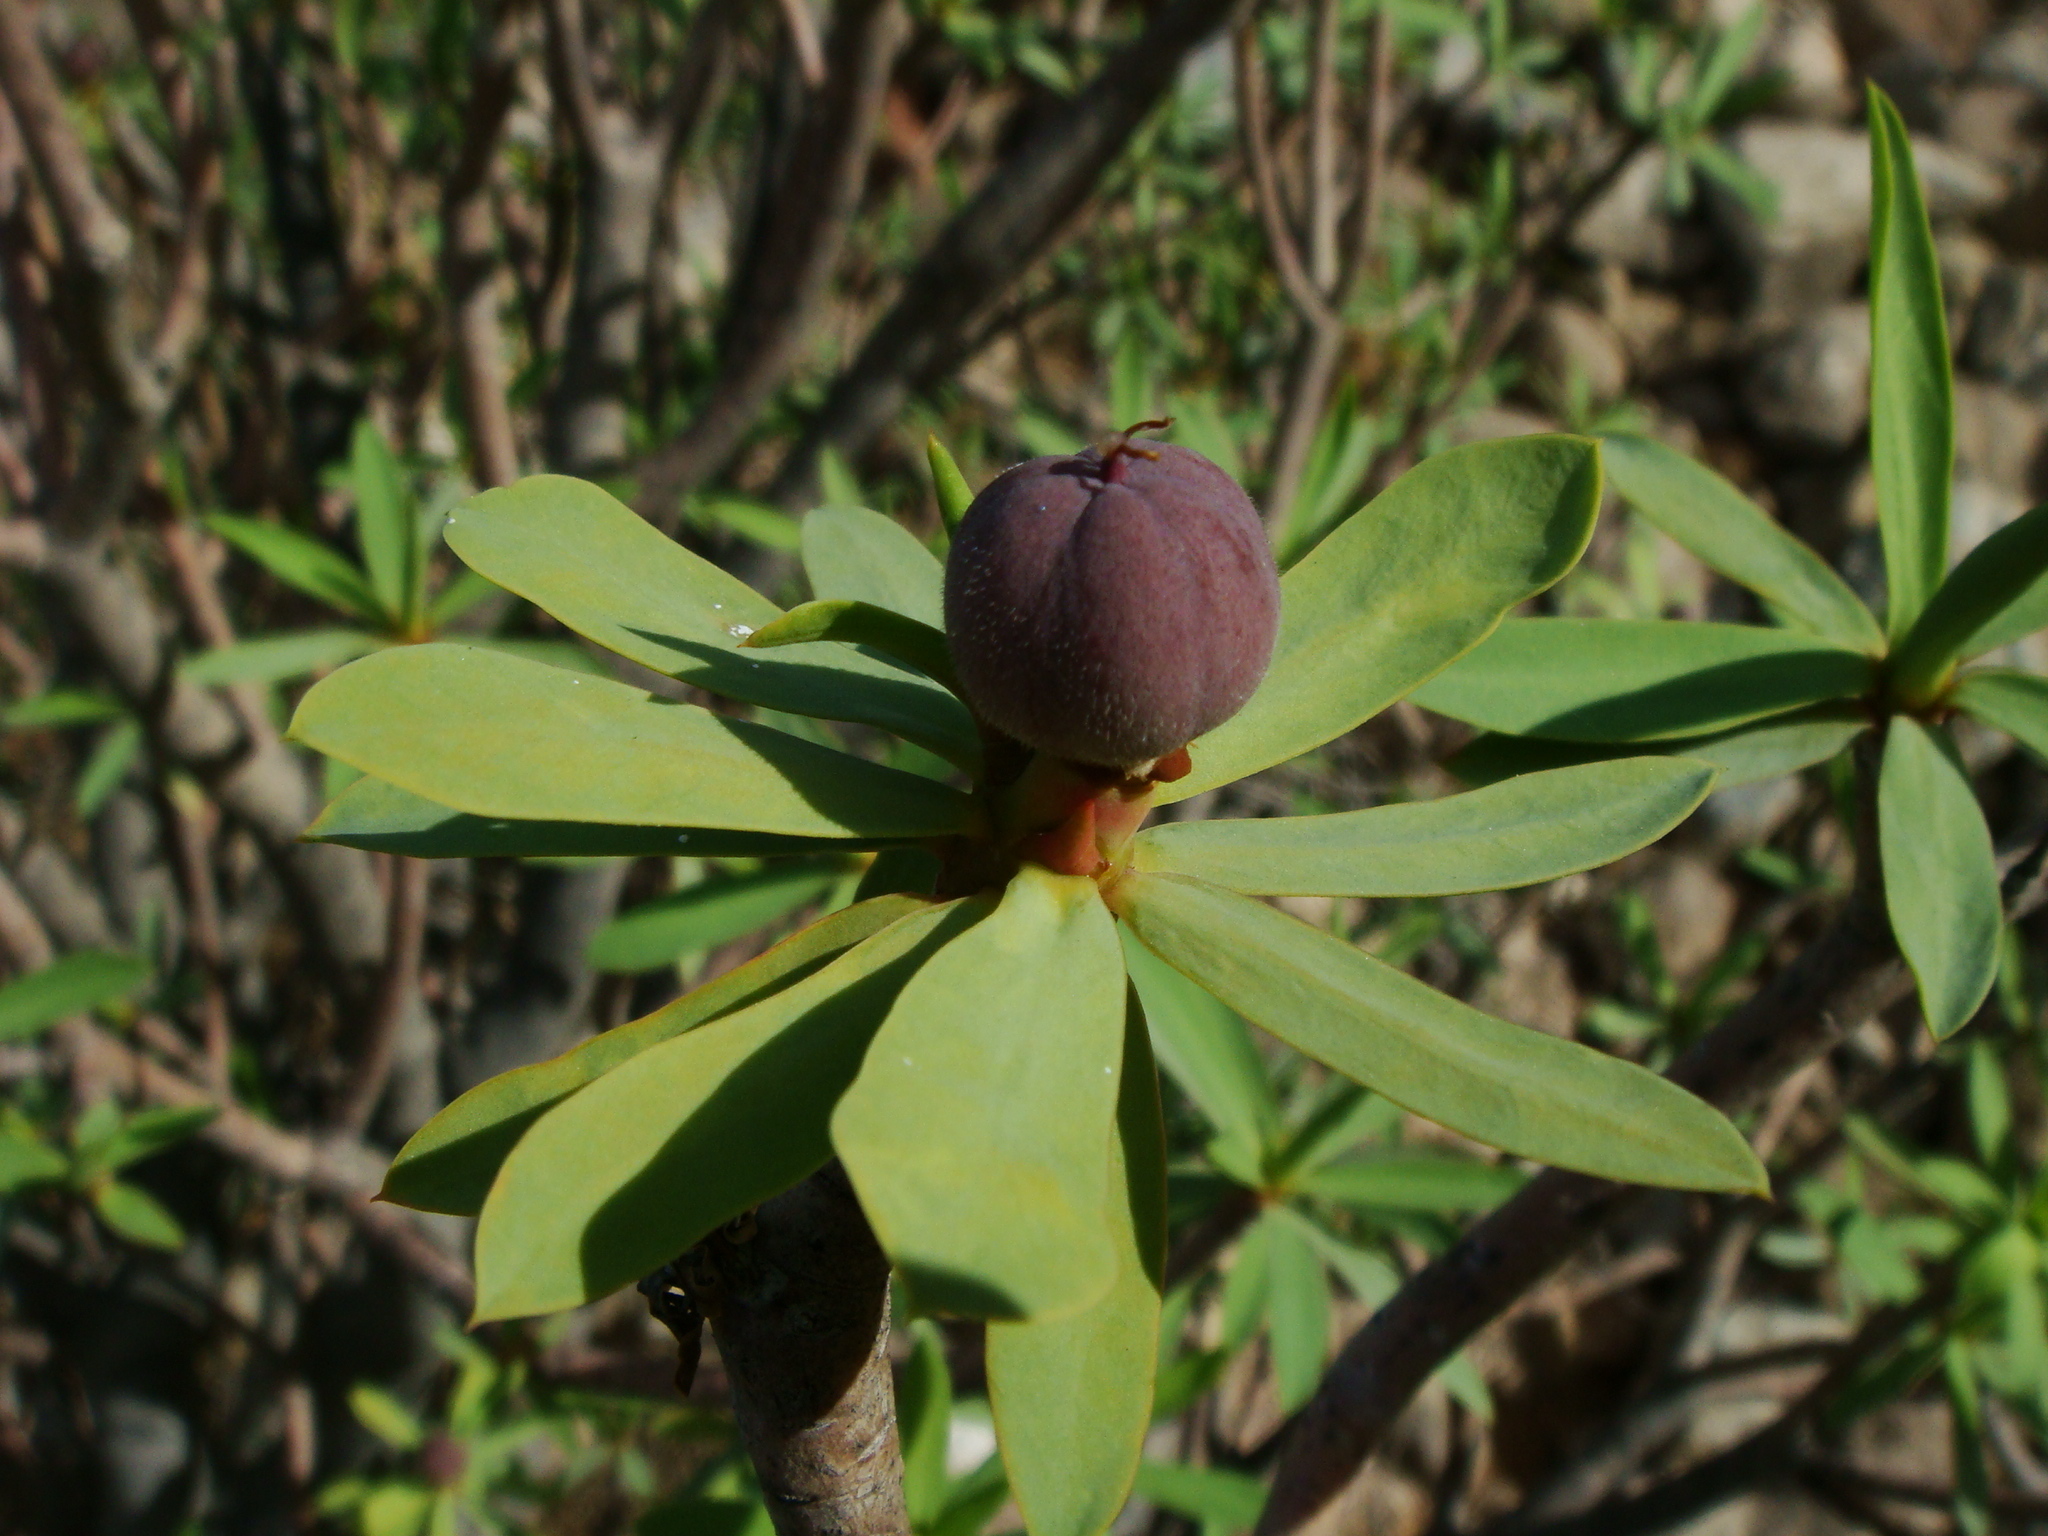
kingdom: Plantae
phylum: Tracheophyta
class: Magnoliopsida
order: Malpighiales
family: Euphorbiaceae
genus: Euphorbia
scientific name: Euphorbia balsamifera
